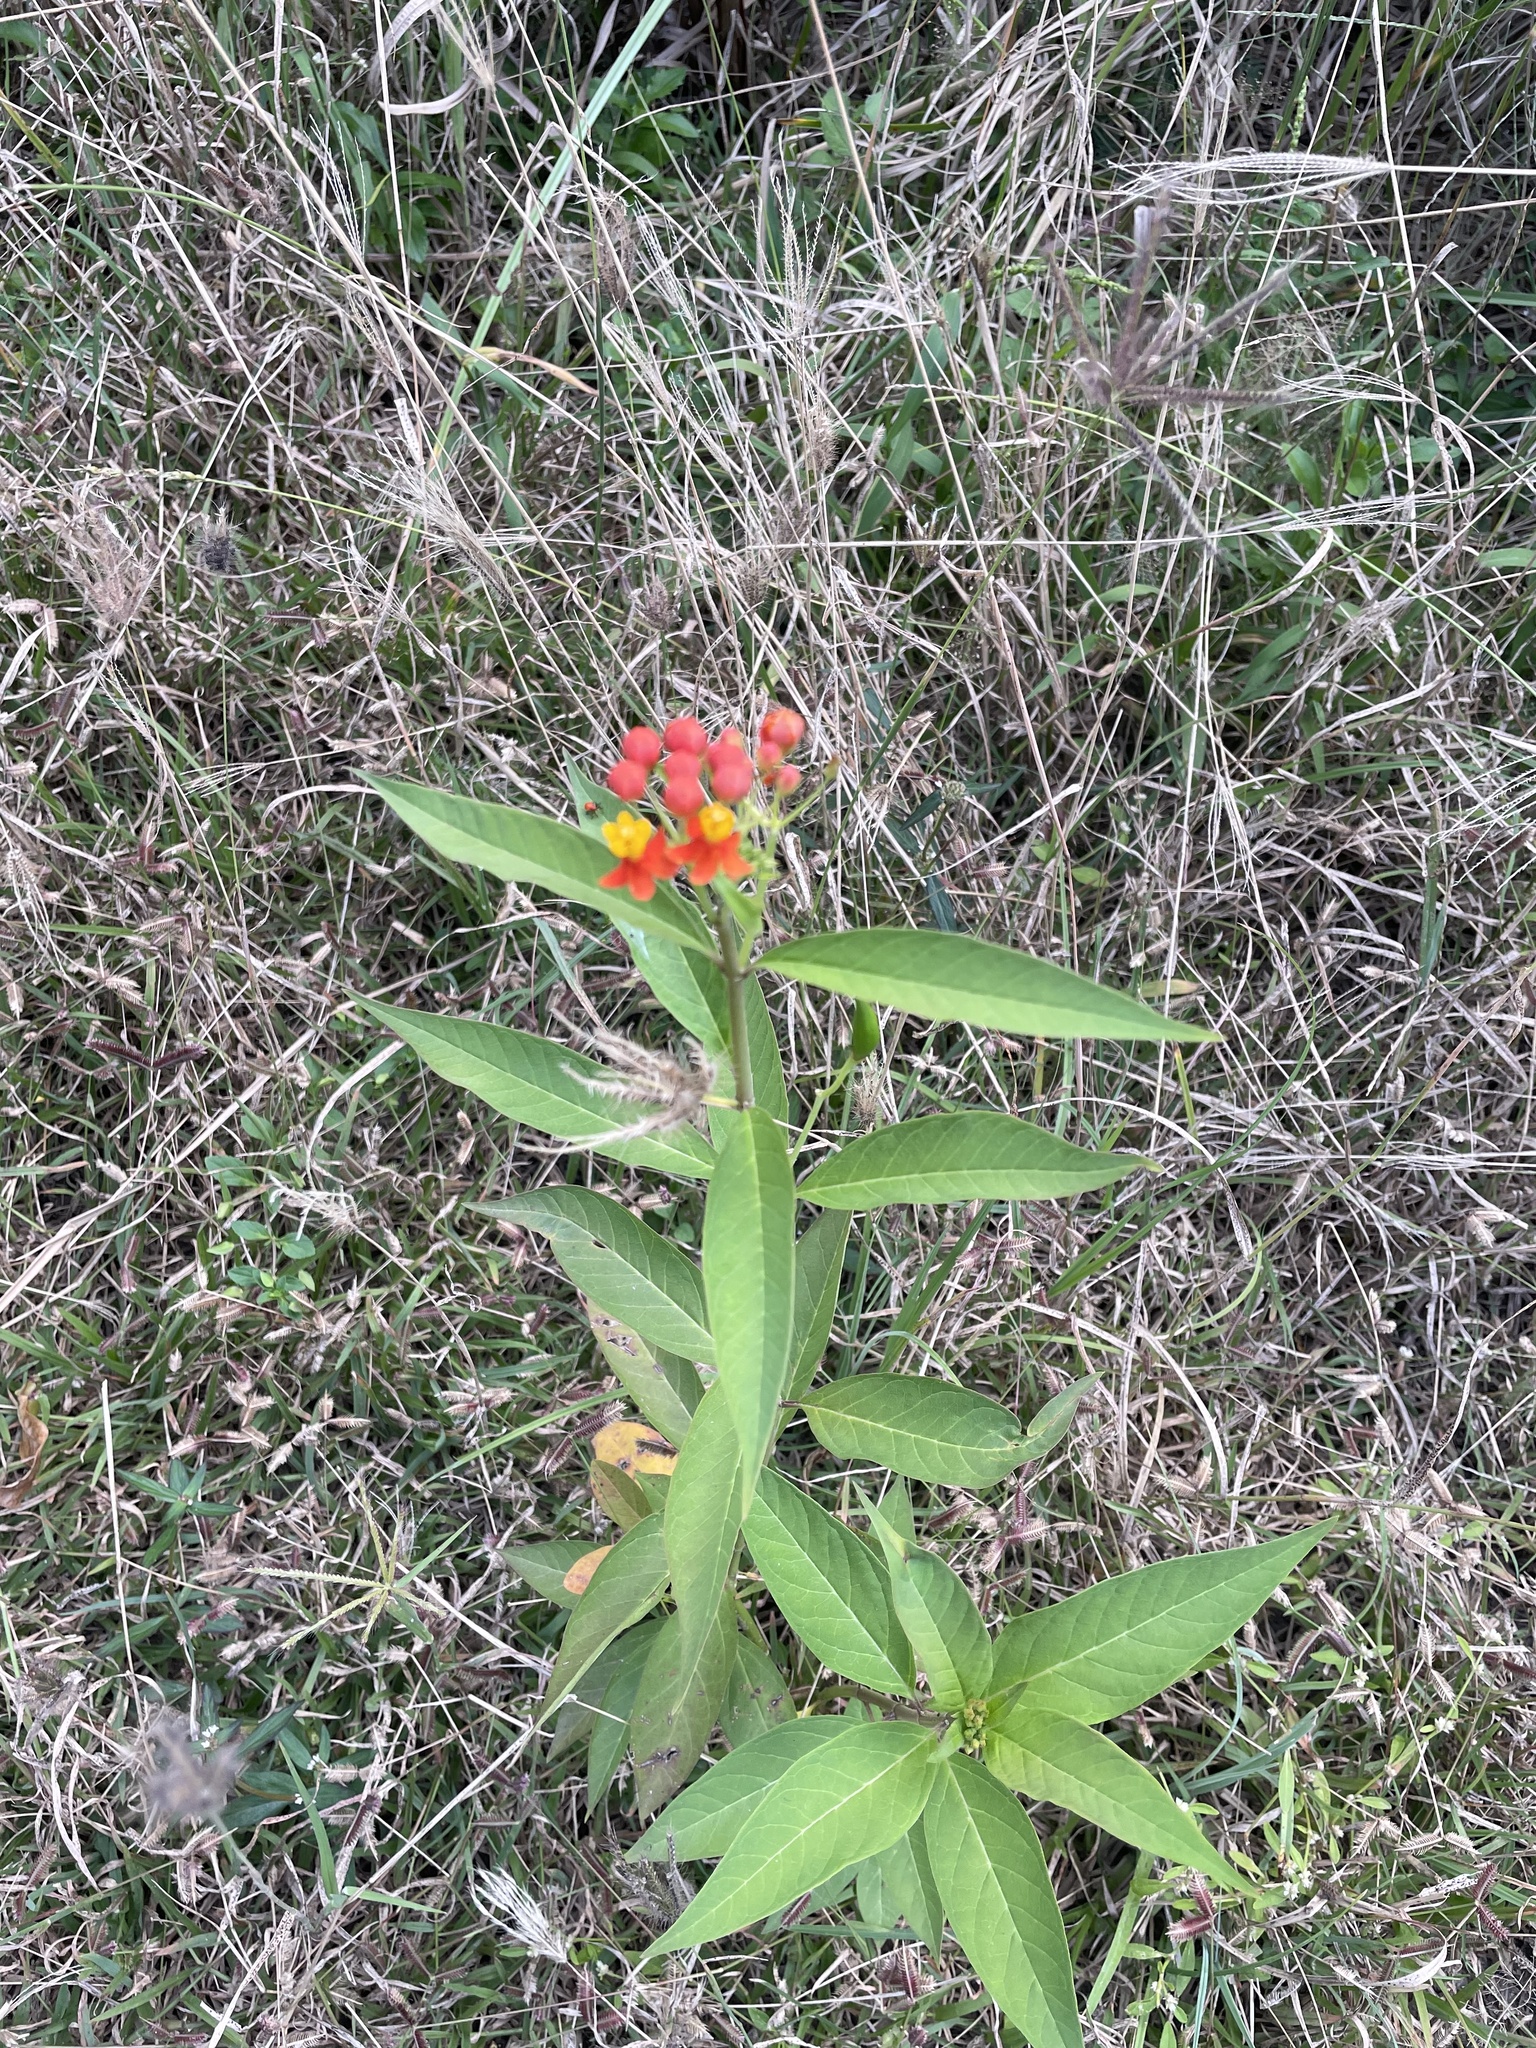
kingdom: Plantae
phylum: Tracheophyta
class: Magnoliopsida
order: Gentianales
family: Apocynaceae
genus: Asclepias
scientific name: Asclepias curassavica
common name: Bloodflower
